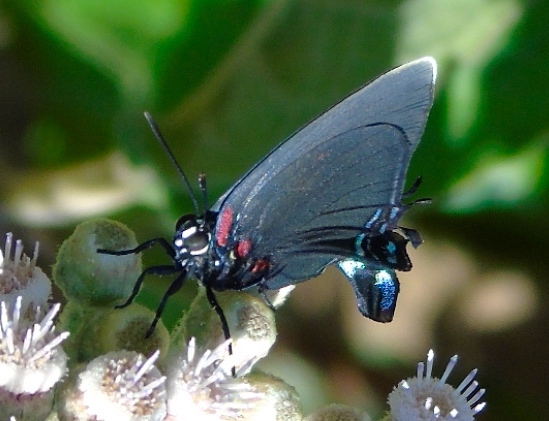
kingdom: Animalia
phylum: Arthropoda
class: Insecta
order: Lepidoptera
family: Lycaenidae
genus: Atlides
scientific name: Atlides halesus
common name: Great purple hairstreak
